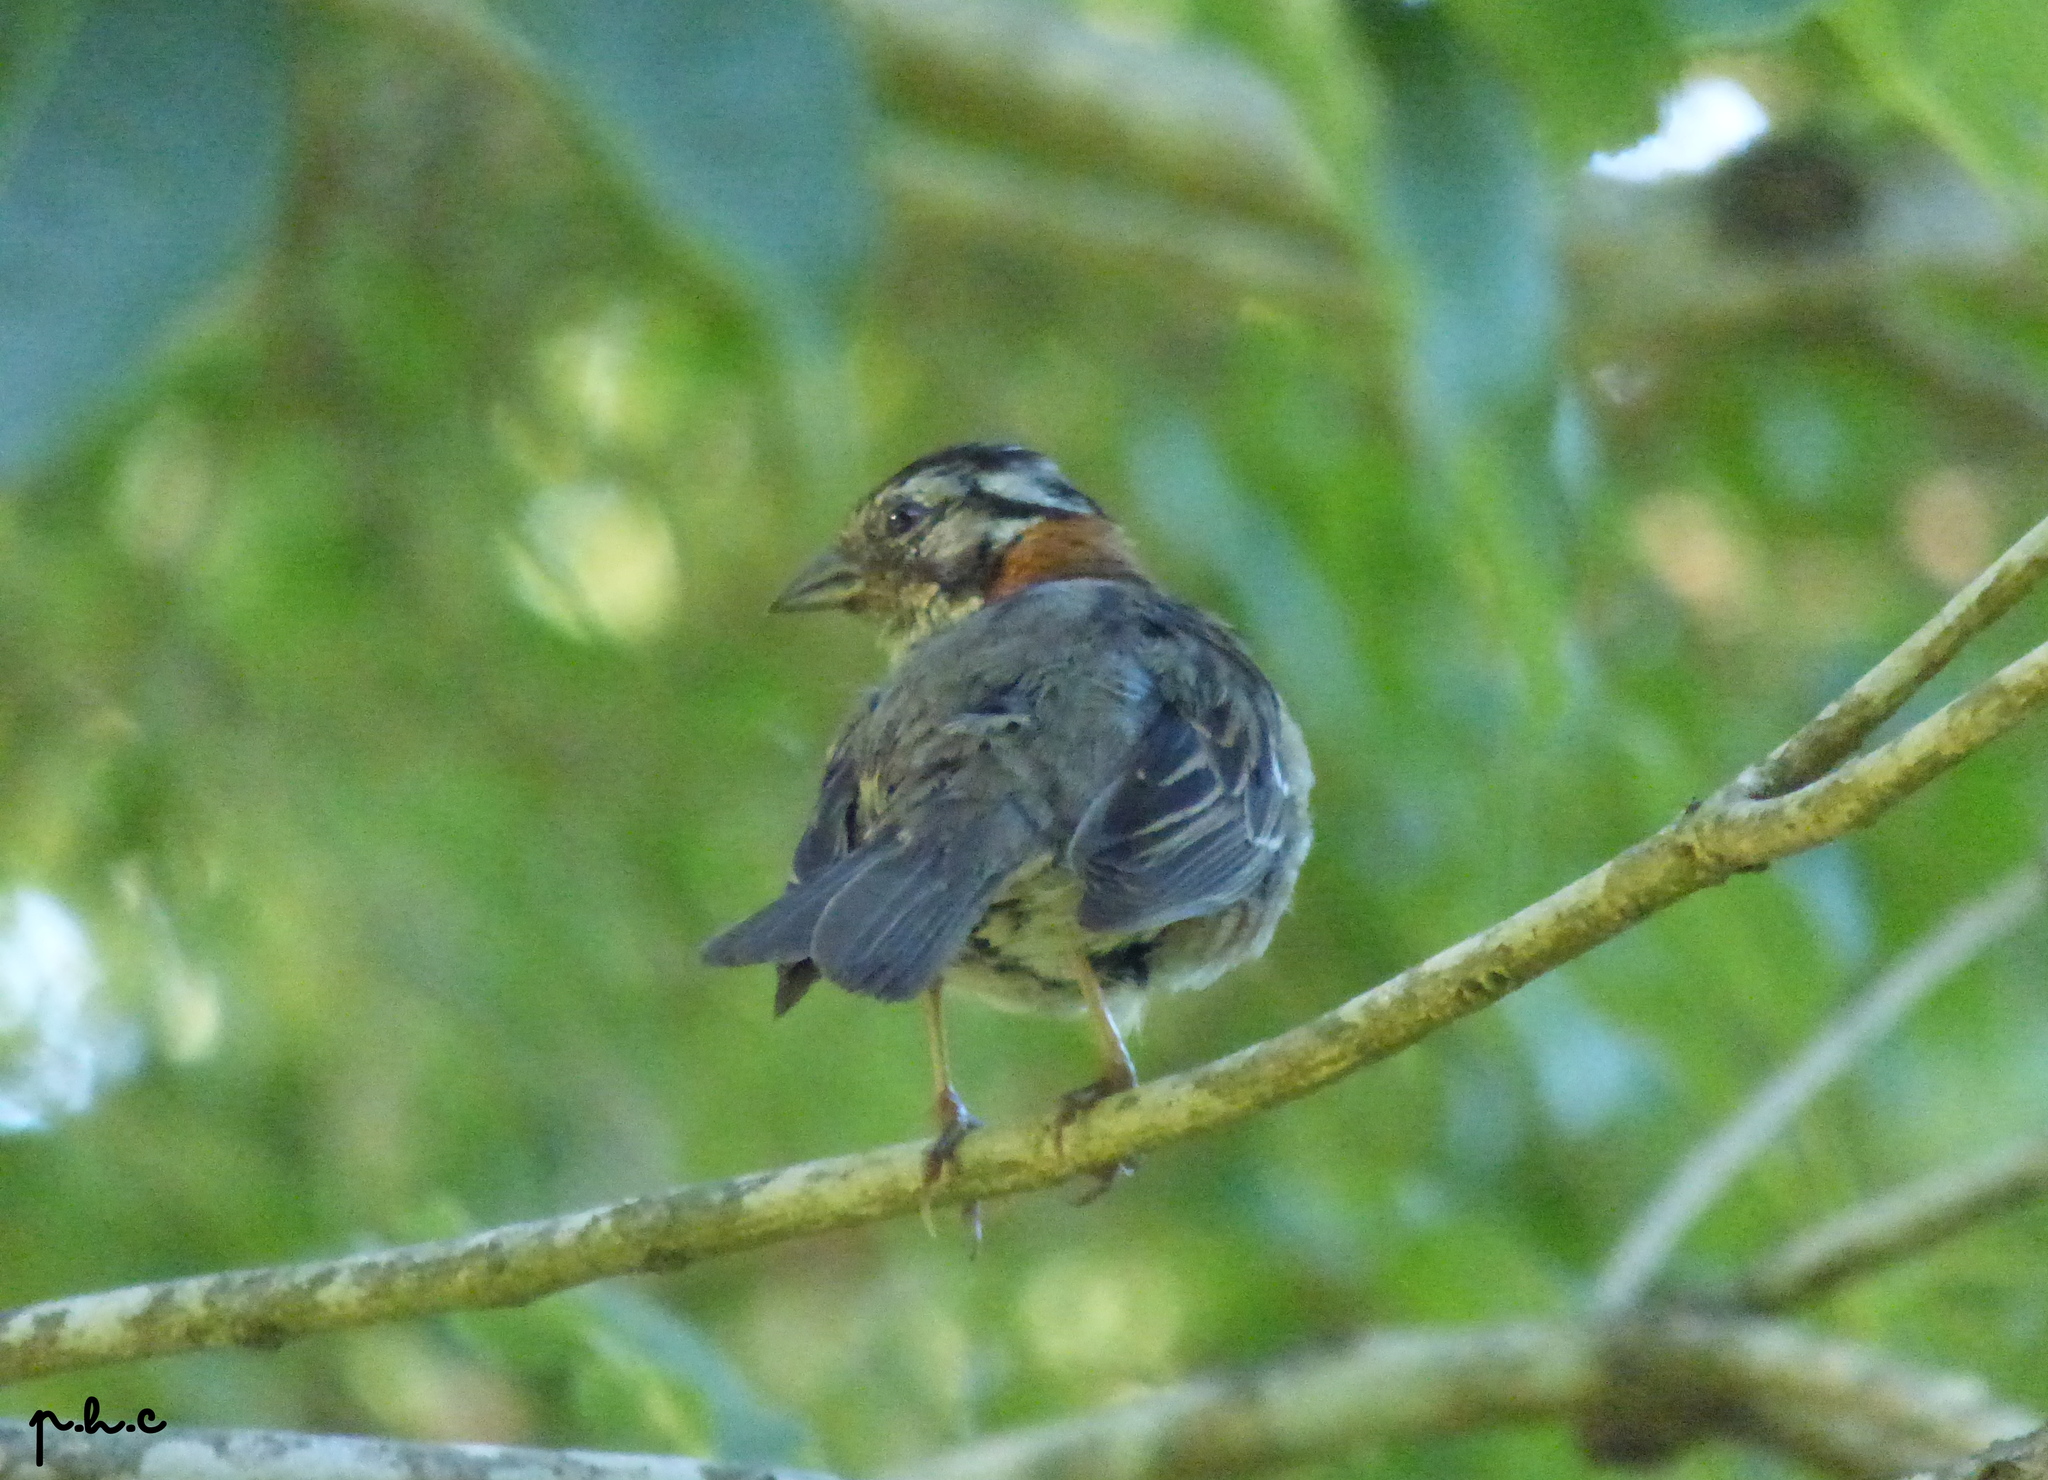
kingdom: Animalia
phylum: Chordata
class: Aves
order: Passeriformes
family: Passerellidae
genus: Zonotrichia
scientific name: Zonotrichia capensis
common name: Rufous-collared sparrow
